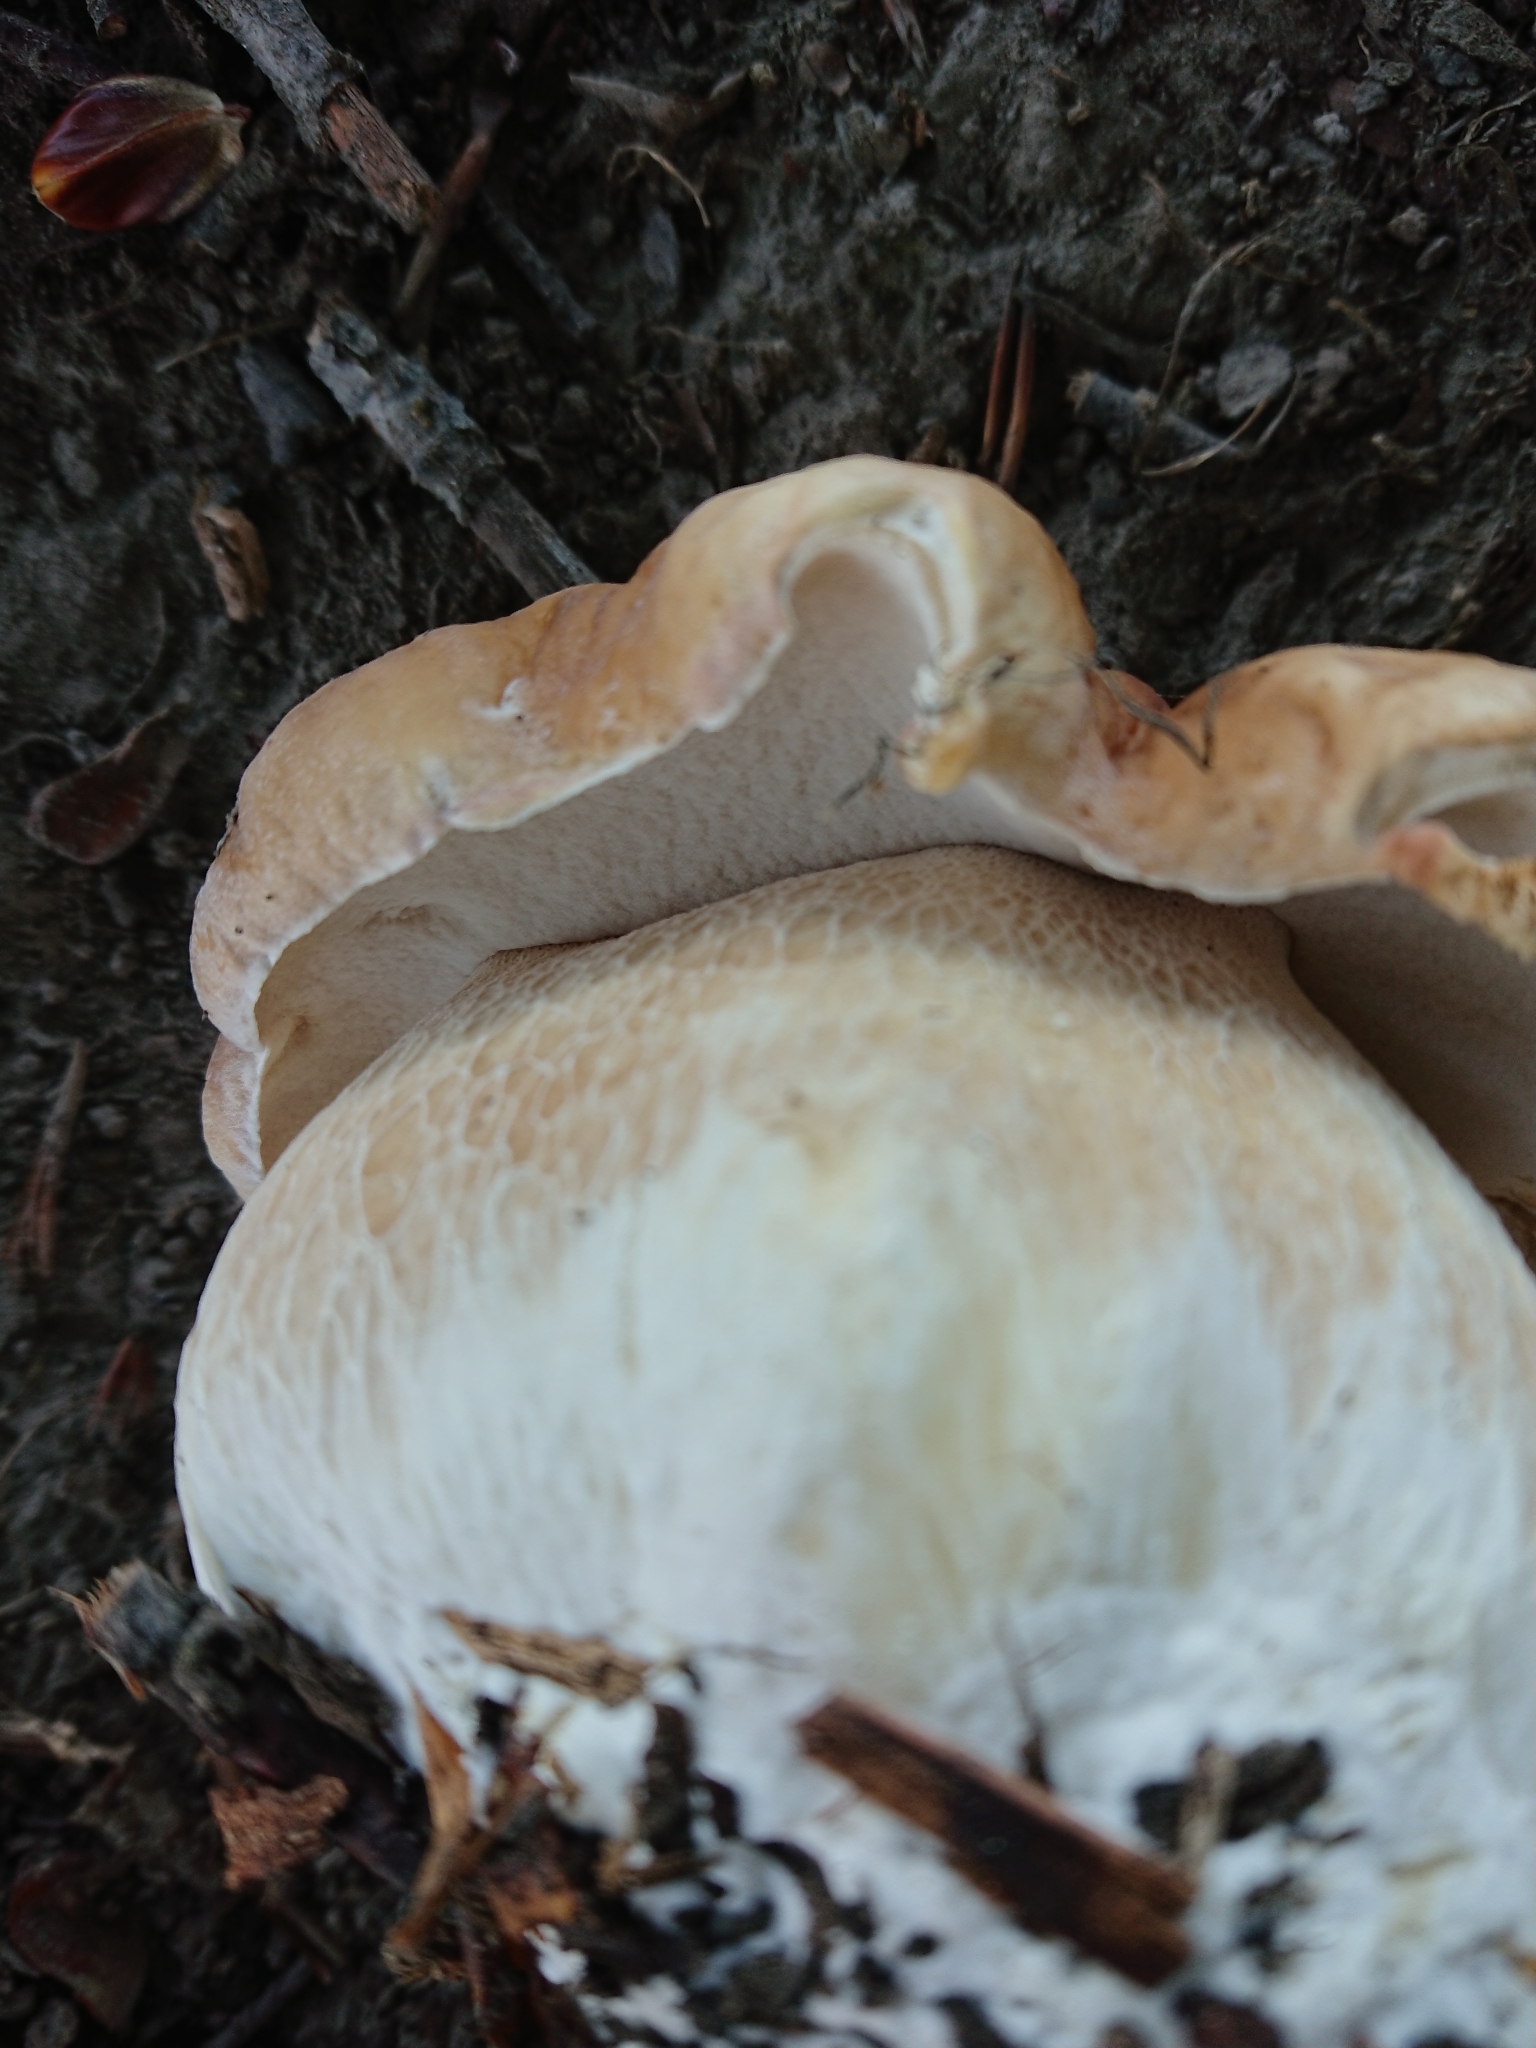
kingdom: Fungi
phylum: Basidiomycota
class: Agaricomycetes
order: Boletales
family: Boletaceae
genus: Boletus
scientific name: Boletus edulis
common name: Cep
